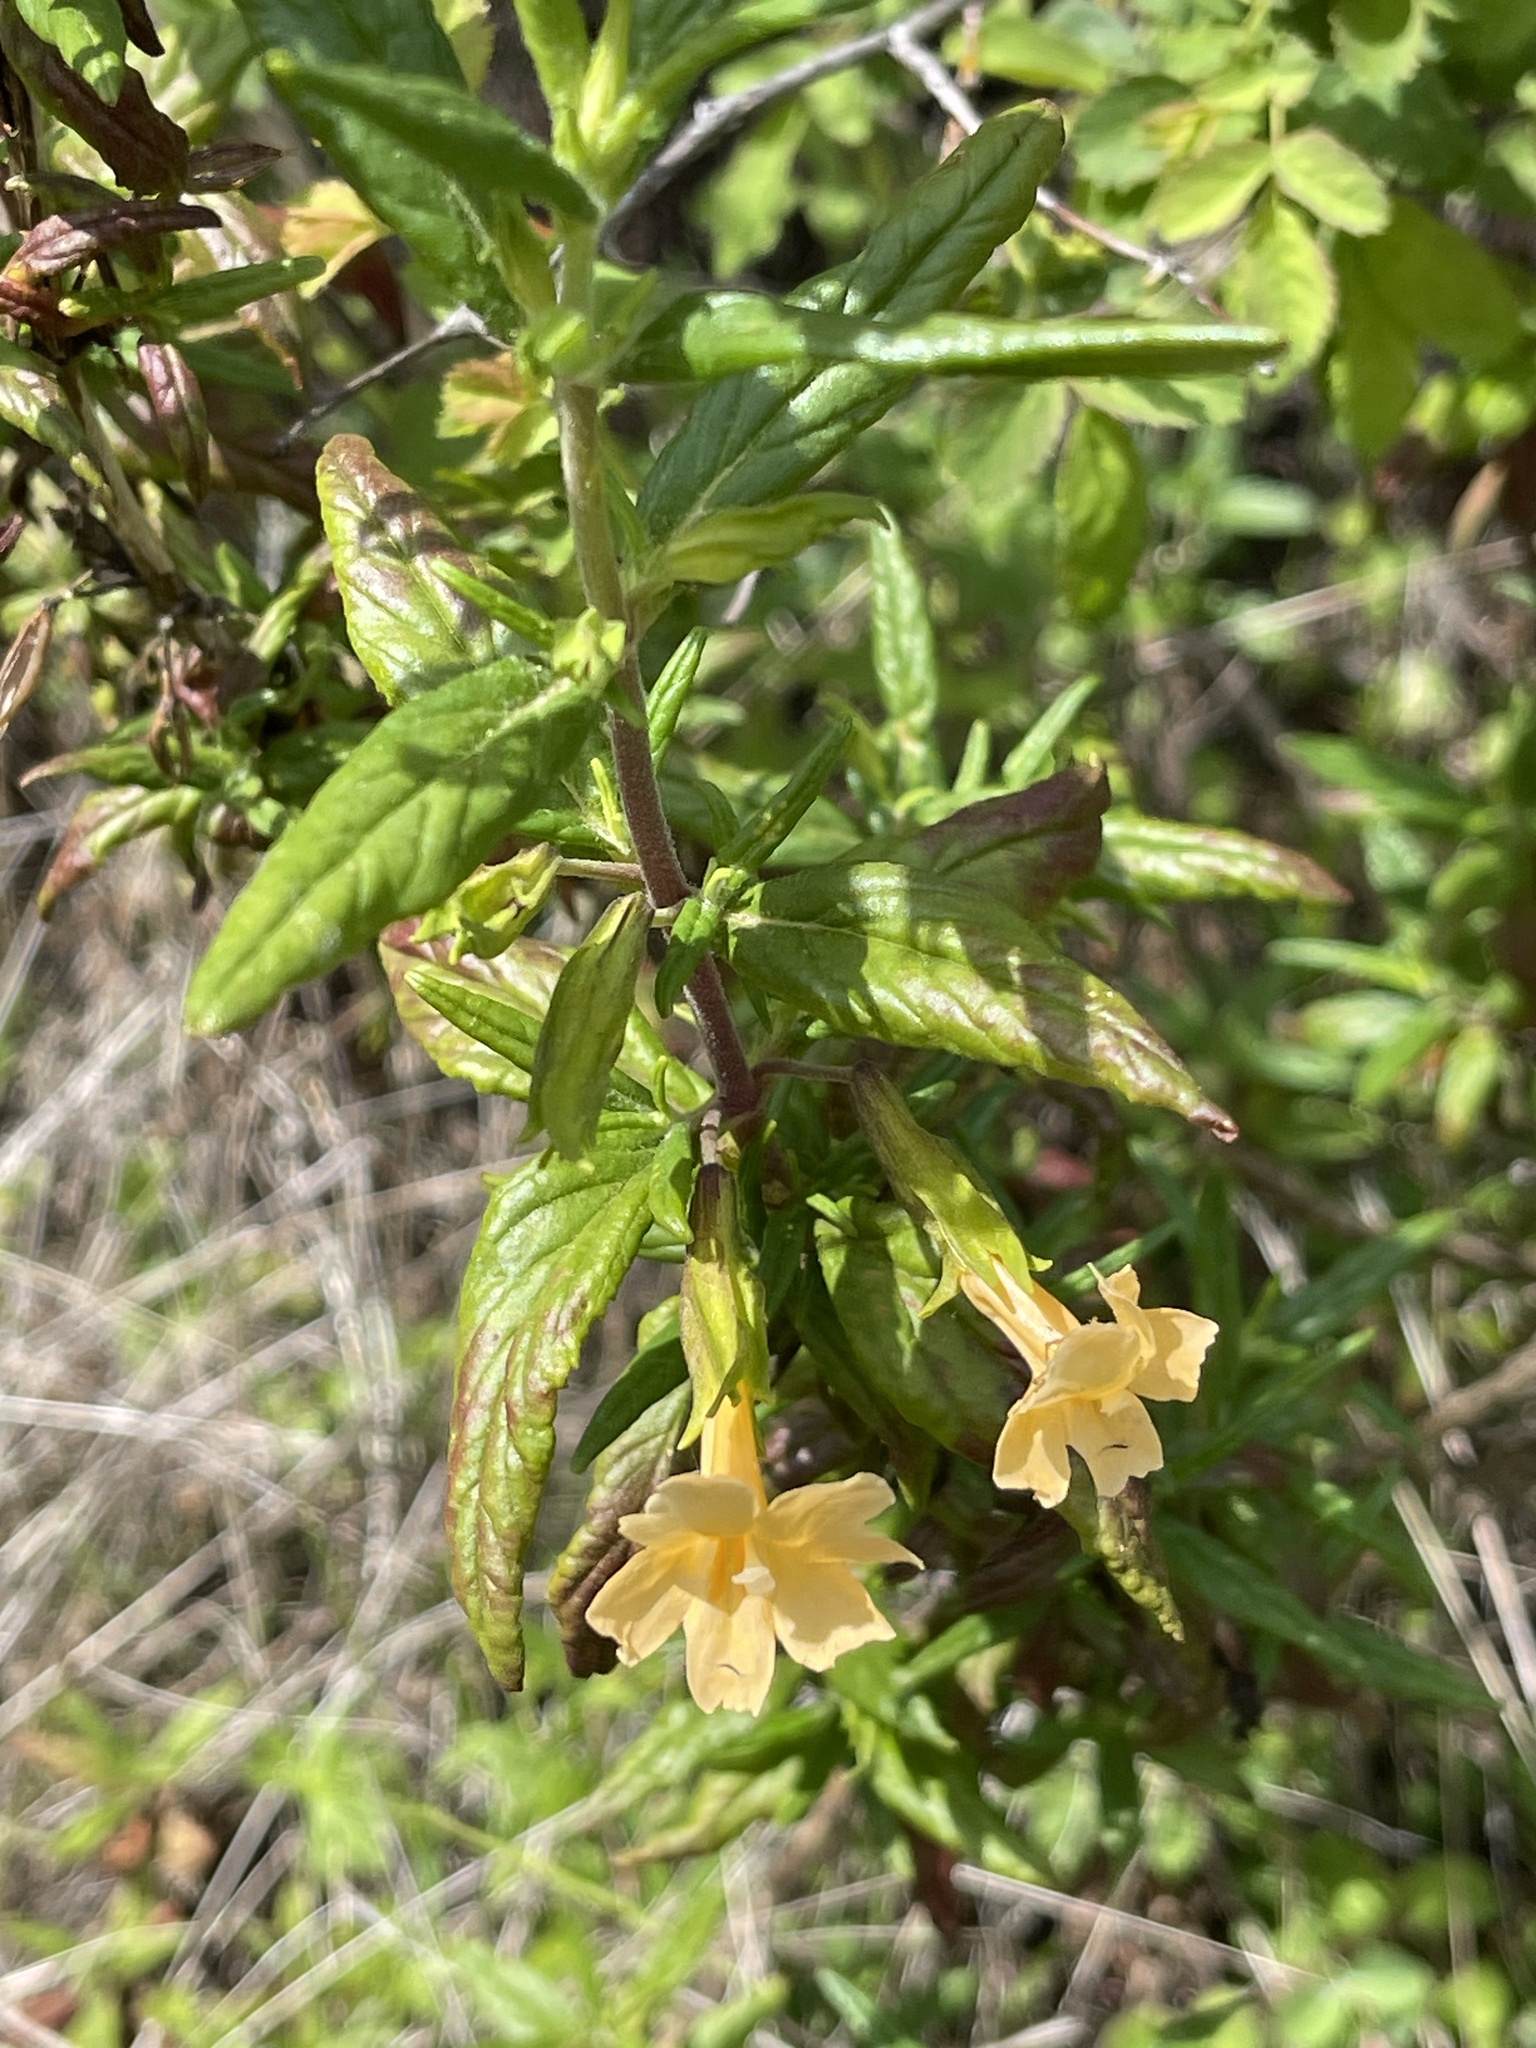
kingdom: Plantae
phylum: Tracheophyta
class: Magnoliopsida
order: Lamiales
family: Phrymaceae
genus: Diplacus
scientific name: Diplacus aurantiacus
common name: Bush monkey-flower
